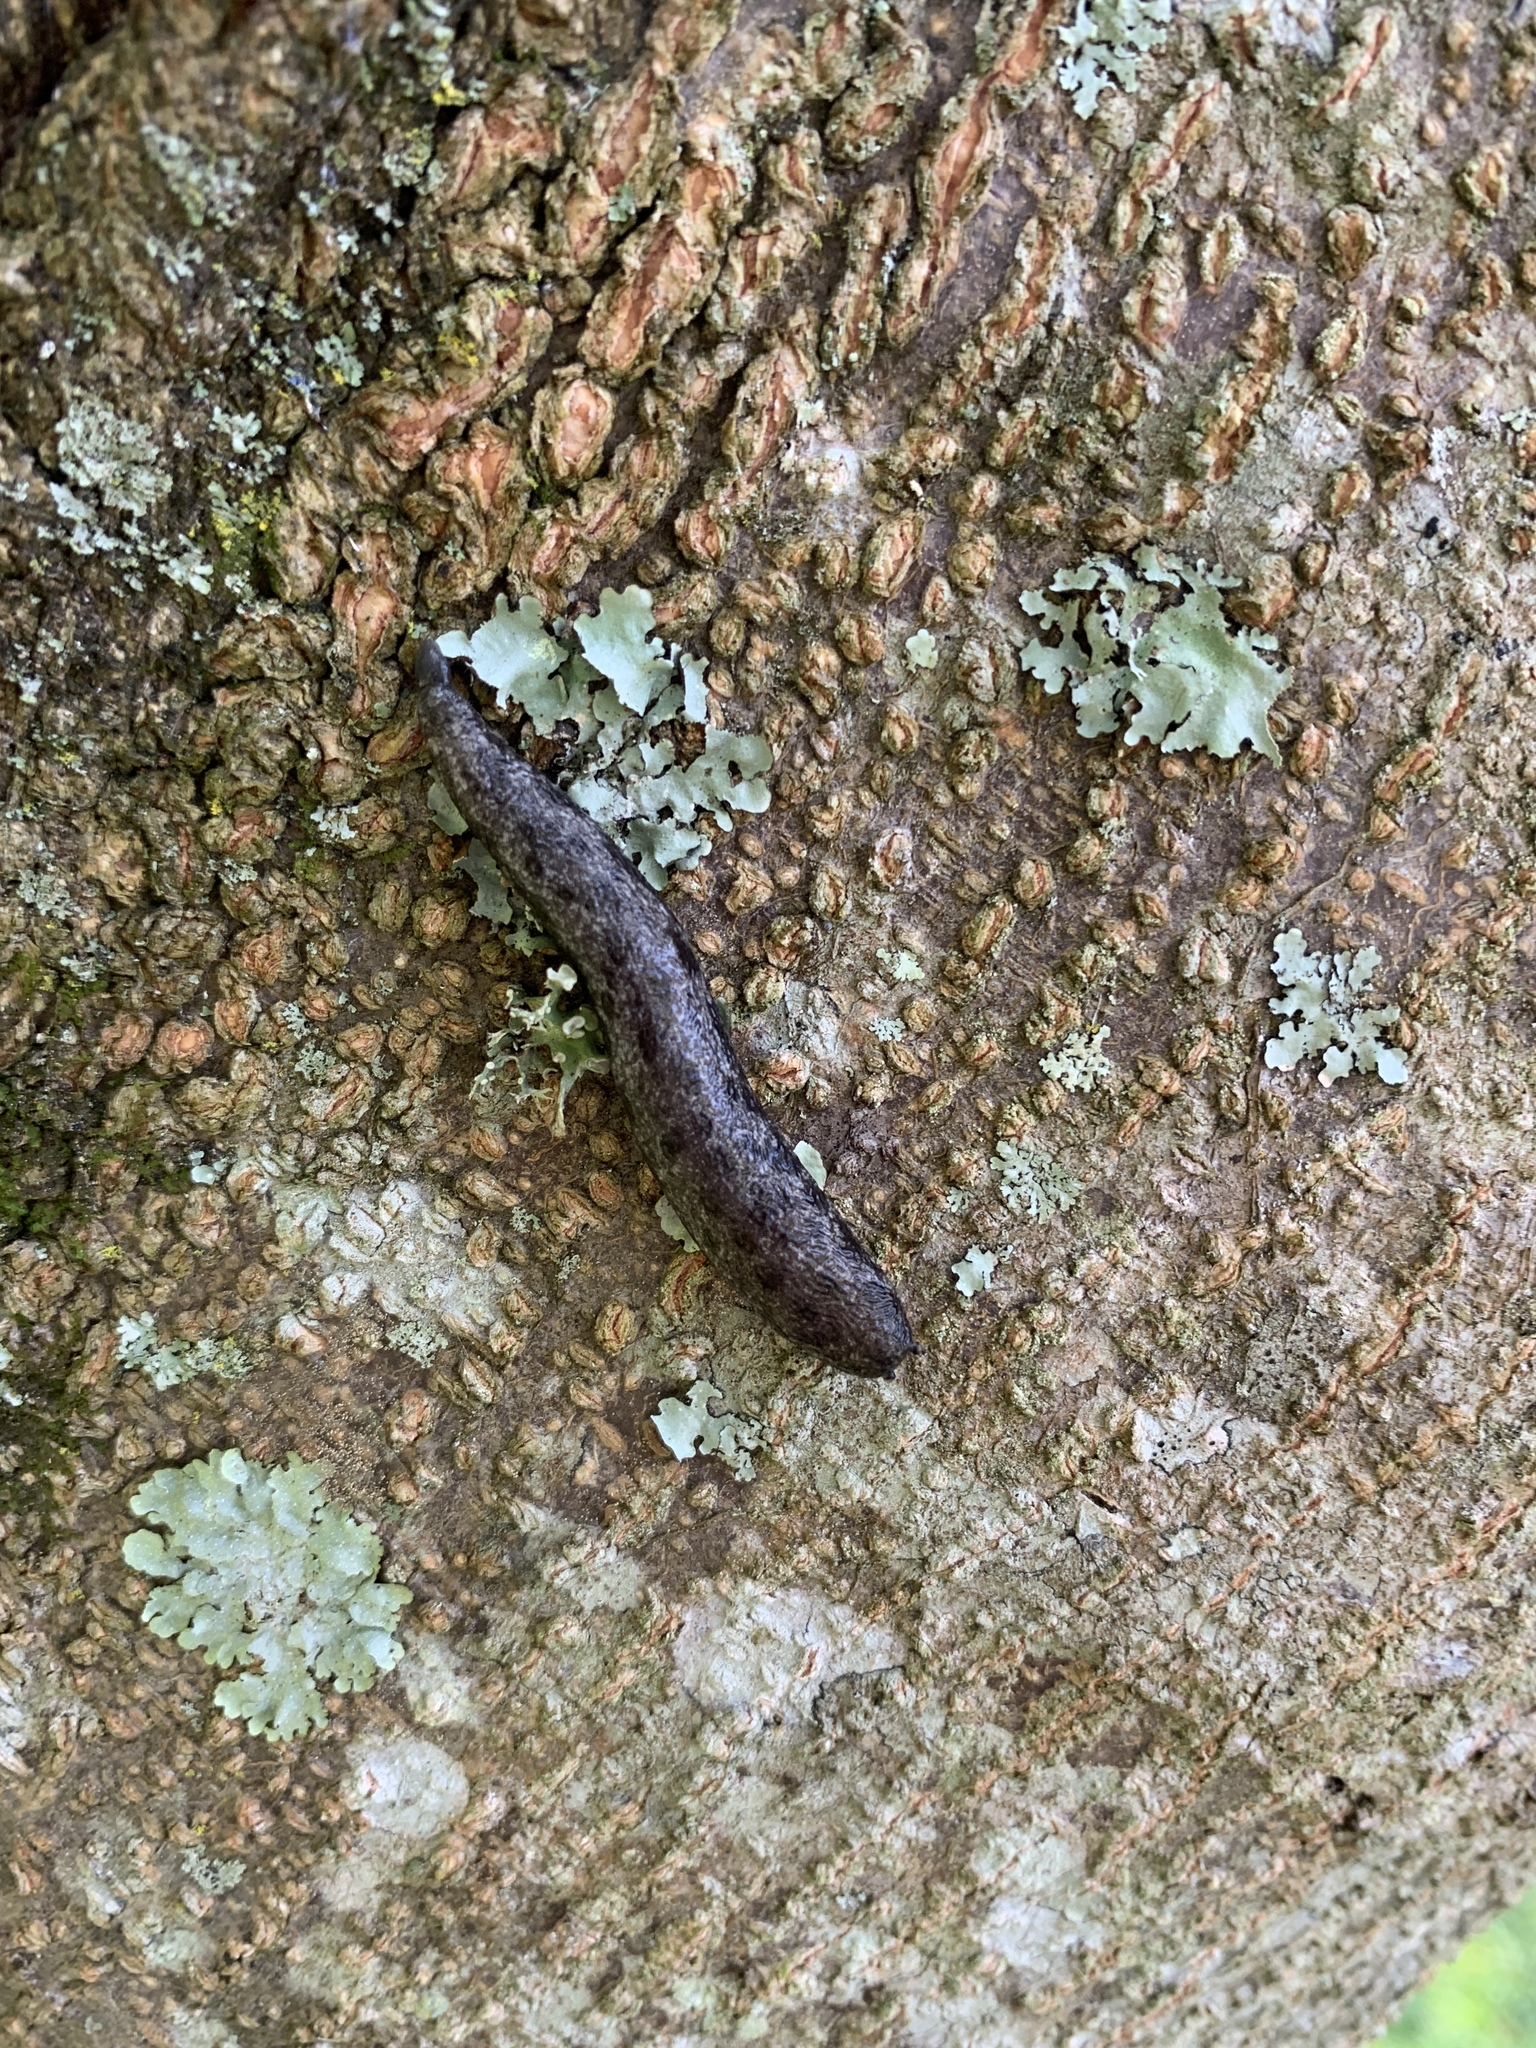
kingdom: Animalia
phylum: Mollusca
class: Gastropoda
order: Stylommatophora
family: Philomycidae
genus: Megapallifera
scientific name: Megapallifera mutabilis
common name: Changeable mantleslug
